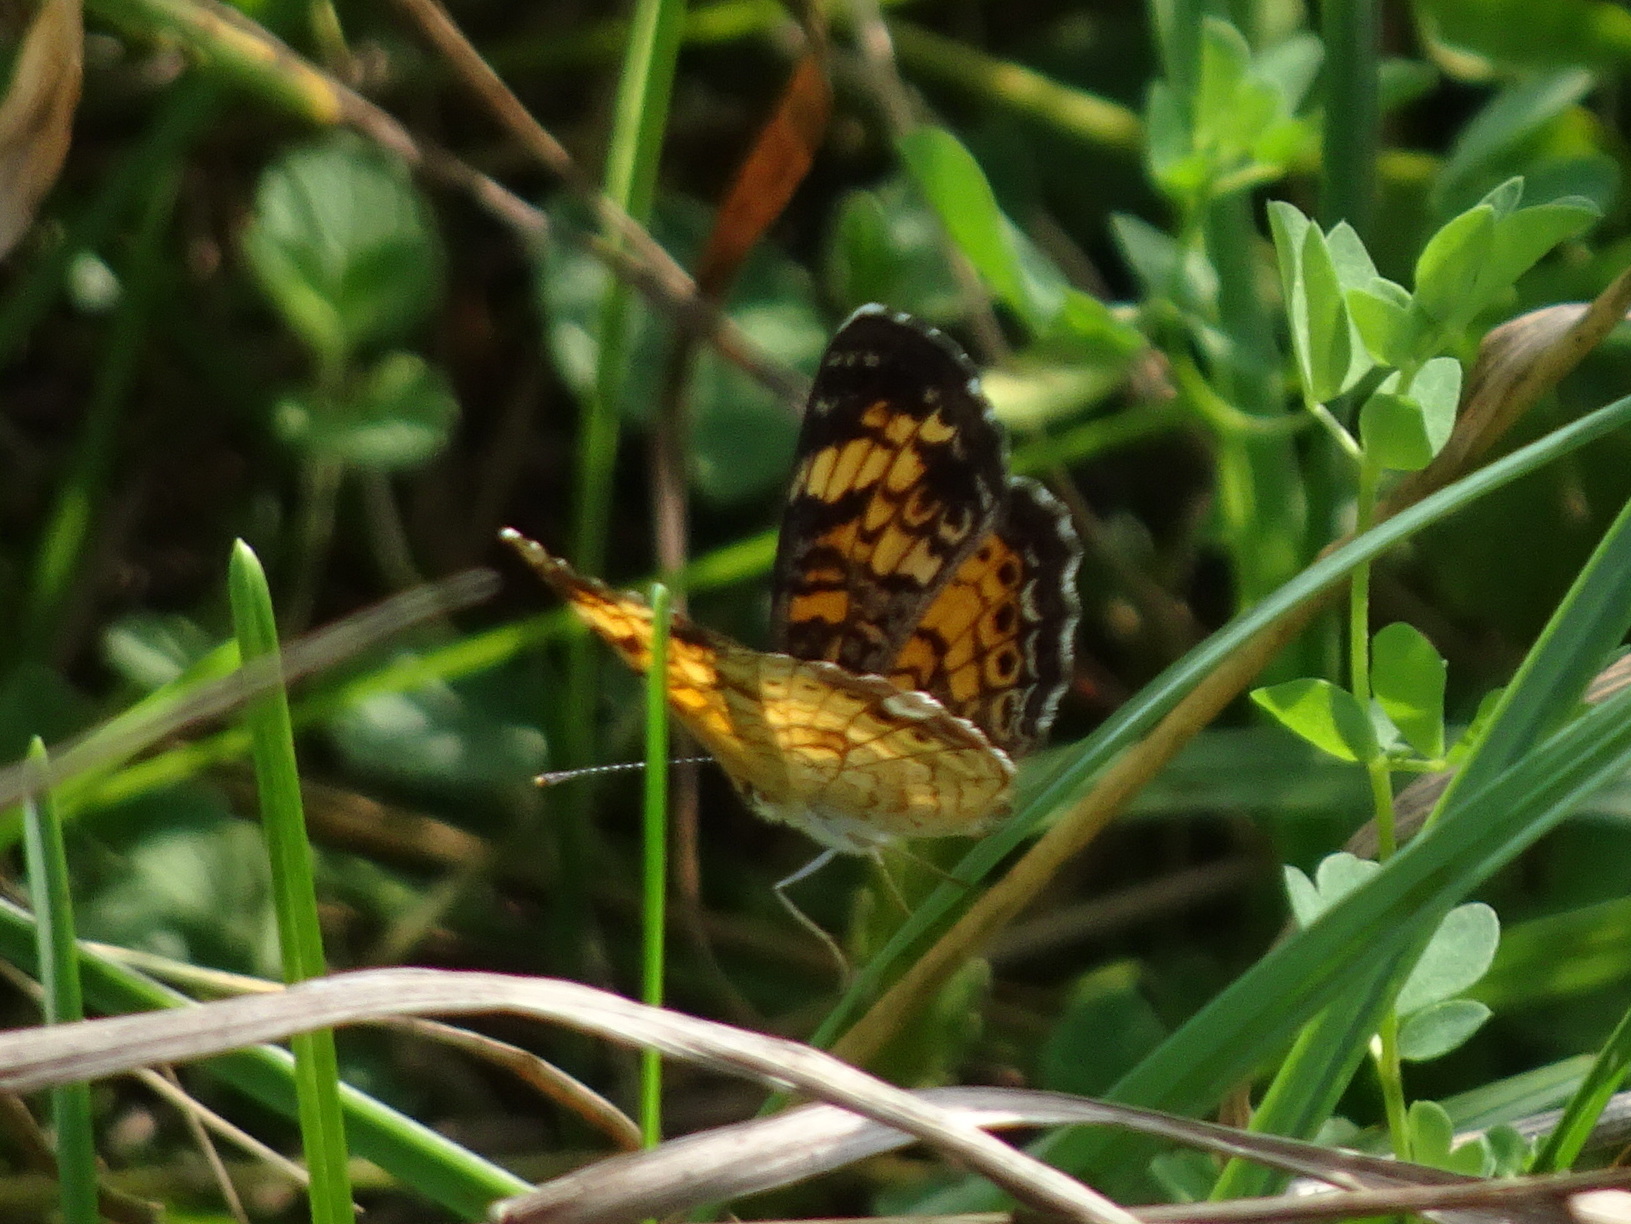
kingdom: Animalia
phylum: Arthropoda
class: Insecta
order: Lepidoptera
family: Nymphalidae
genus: Phyciodes
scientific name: Phyciodes tharos
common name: Pearl crescent
